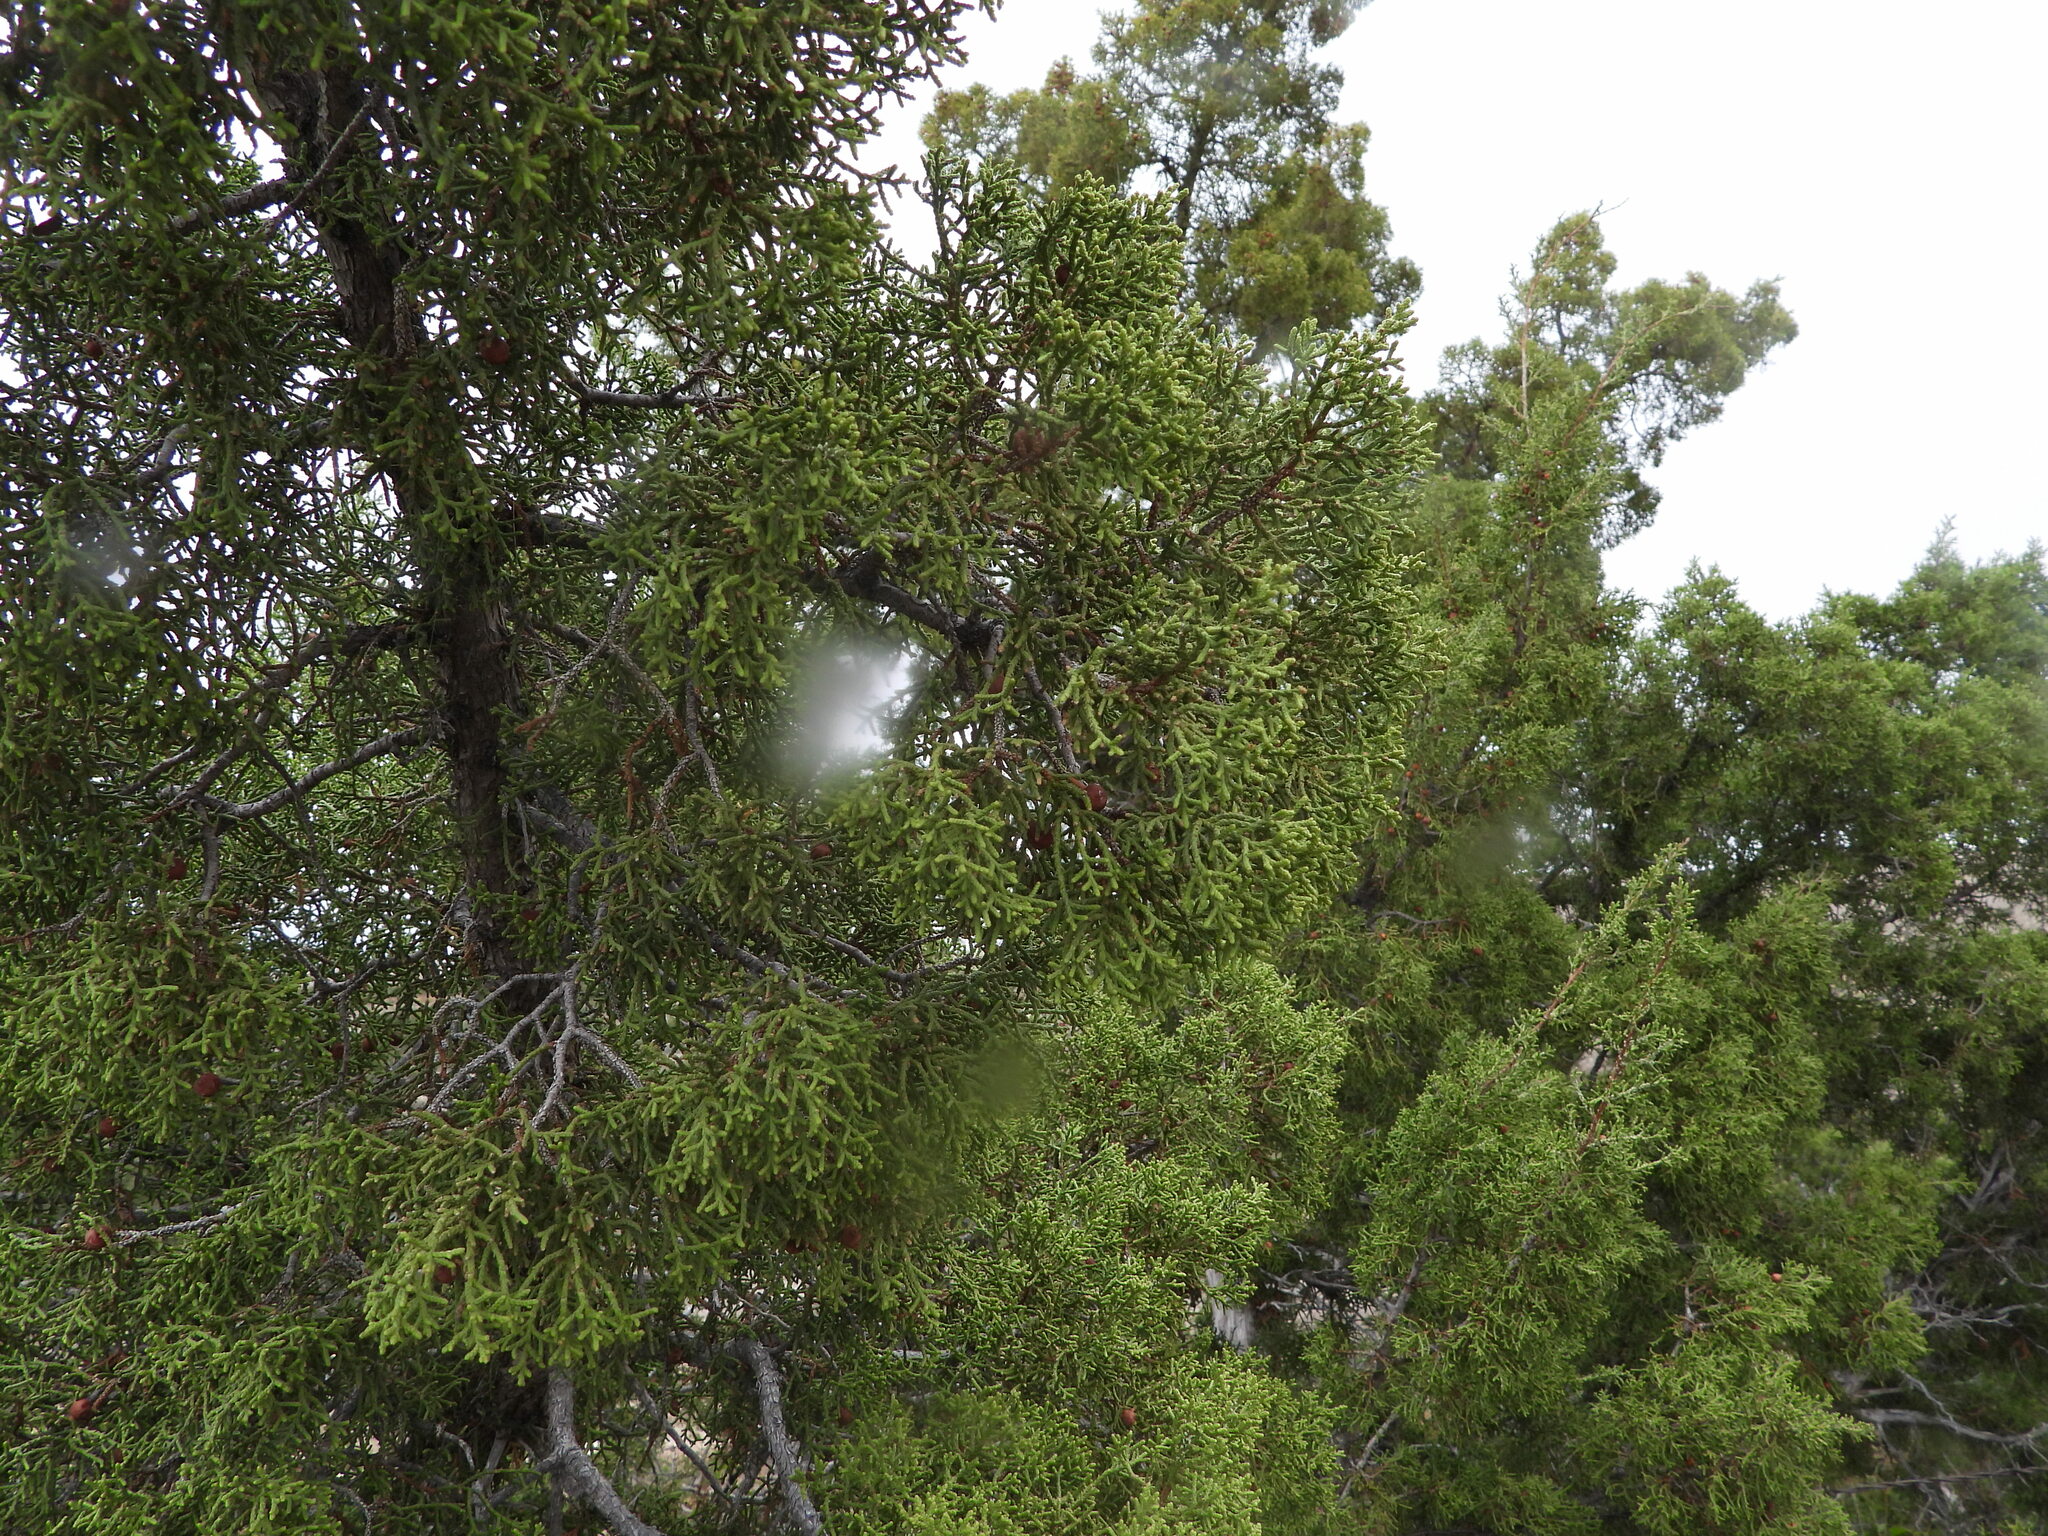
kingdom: Plantae
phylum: Tracheophyta
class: Pinopsida
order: Pinales
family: Cupressaceae
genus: Juniperus
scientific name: Juniperus pinchotii
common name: Pinchot juniper
